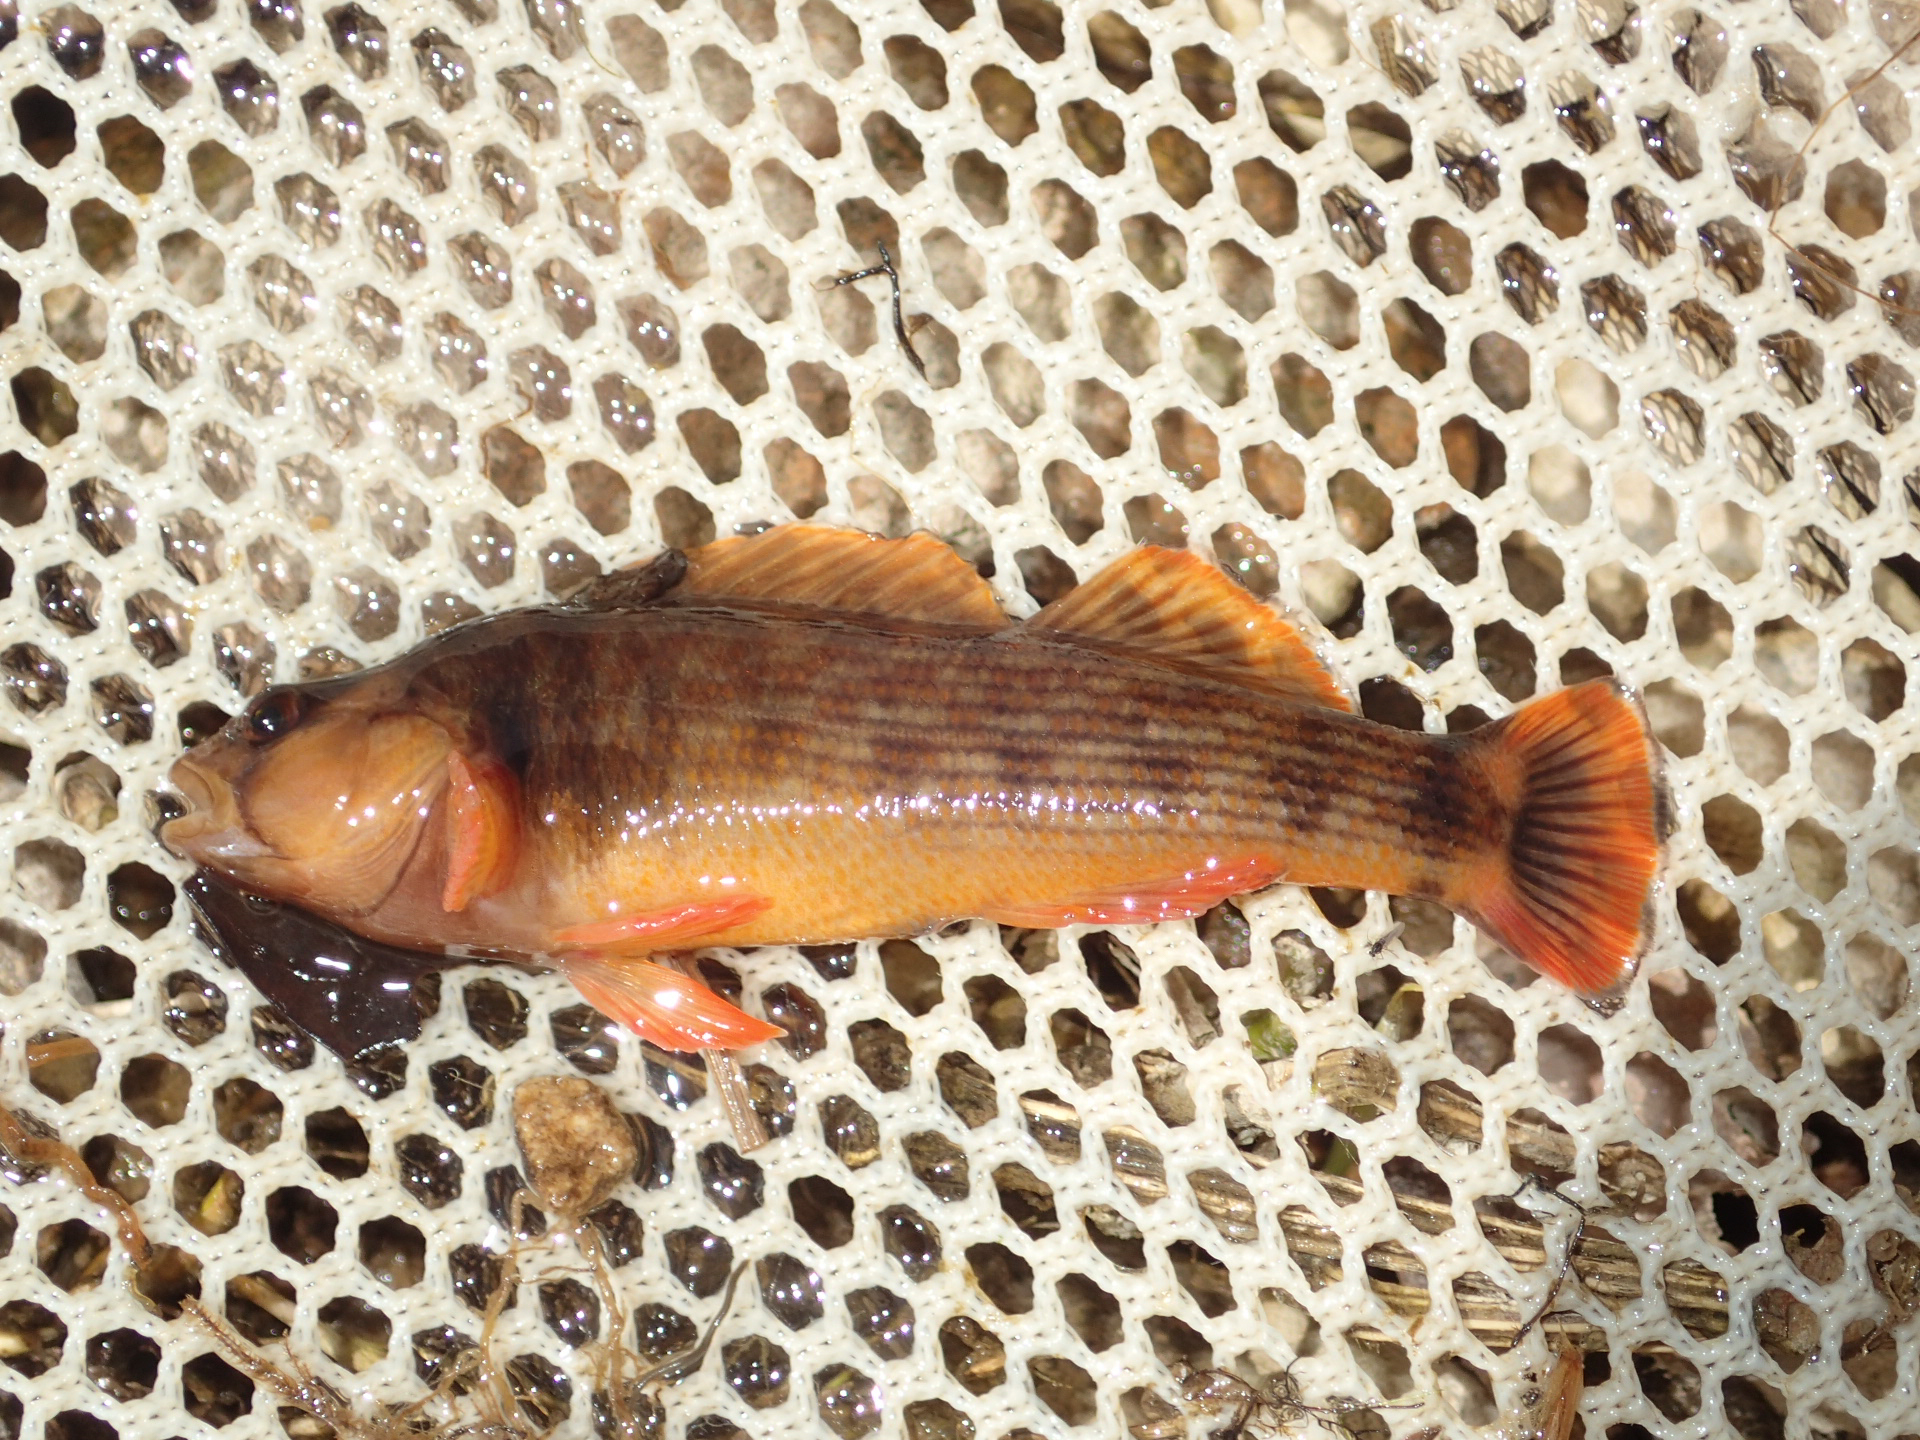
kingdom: Animalia
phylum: Chordata
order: Perciformes
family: Percidae
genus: Etheostoma
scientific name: Etheostoma bellum
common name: Orangefin darter
